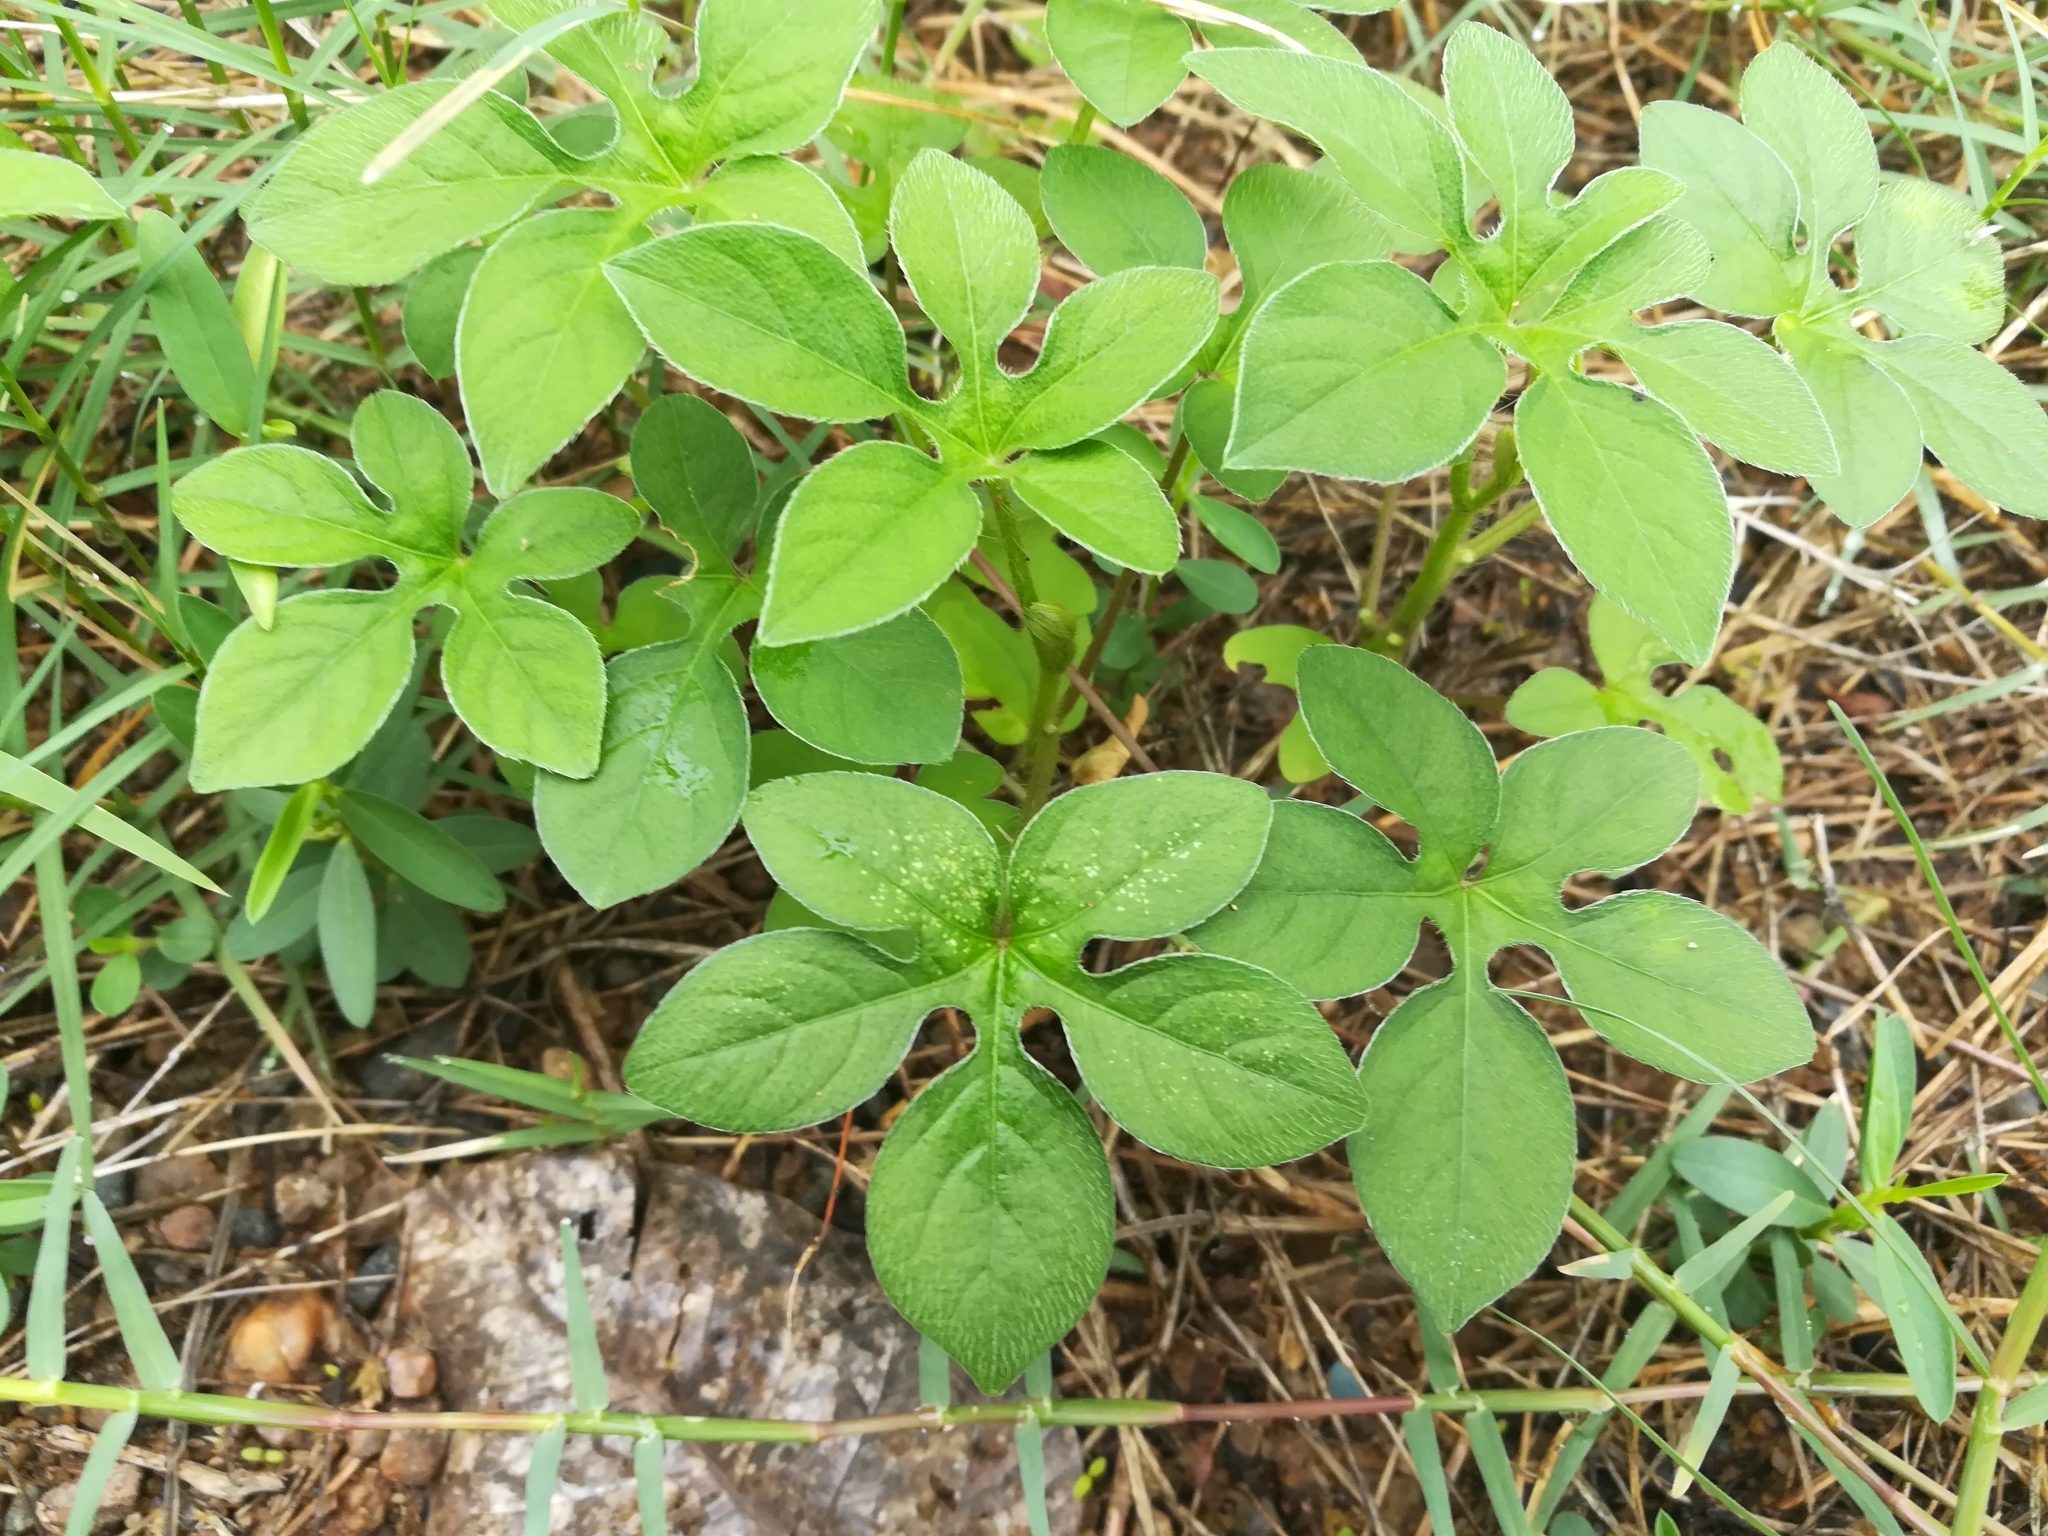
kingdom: Plantae
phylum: Tracheophyta
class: Magnoliopsida
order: Solanales
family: Convolvulaceae
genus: Ipomoea
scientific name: Ipomoea pes-tigridis
